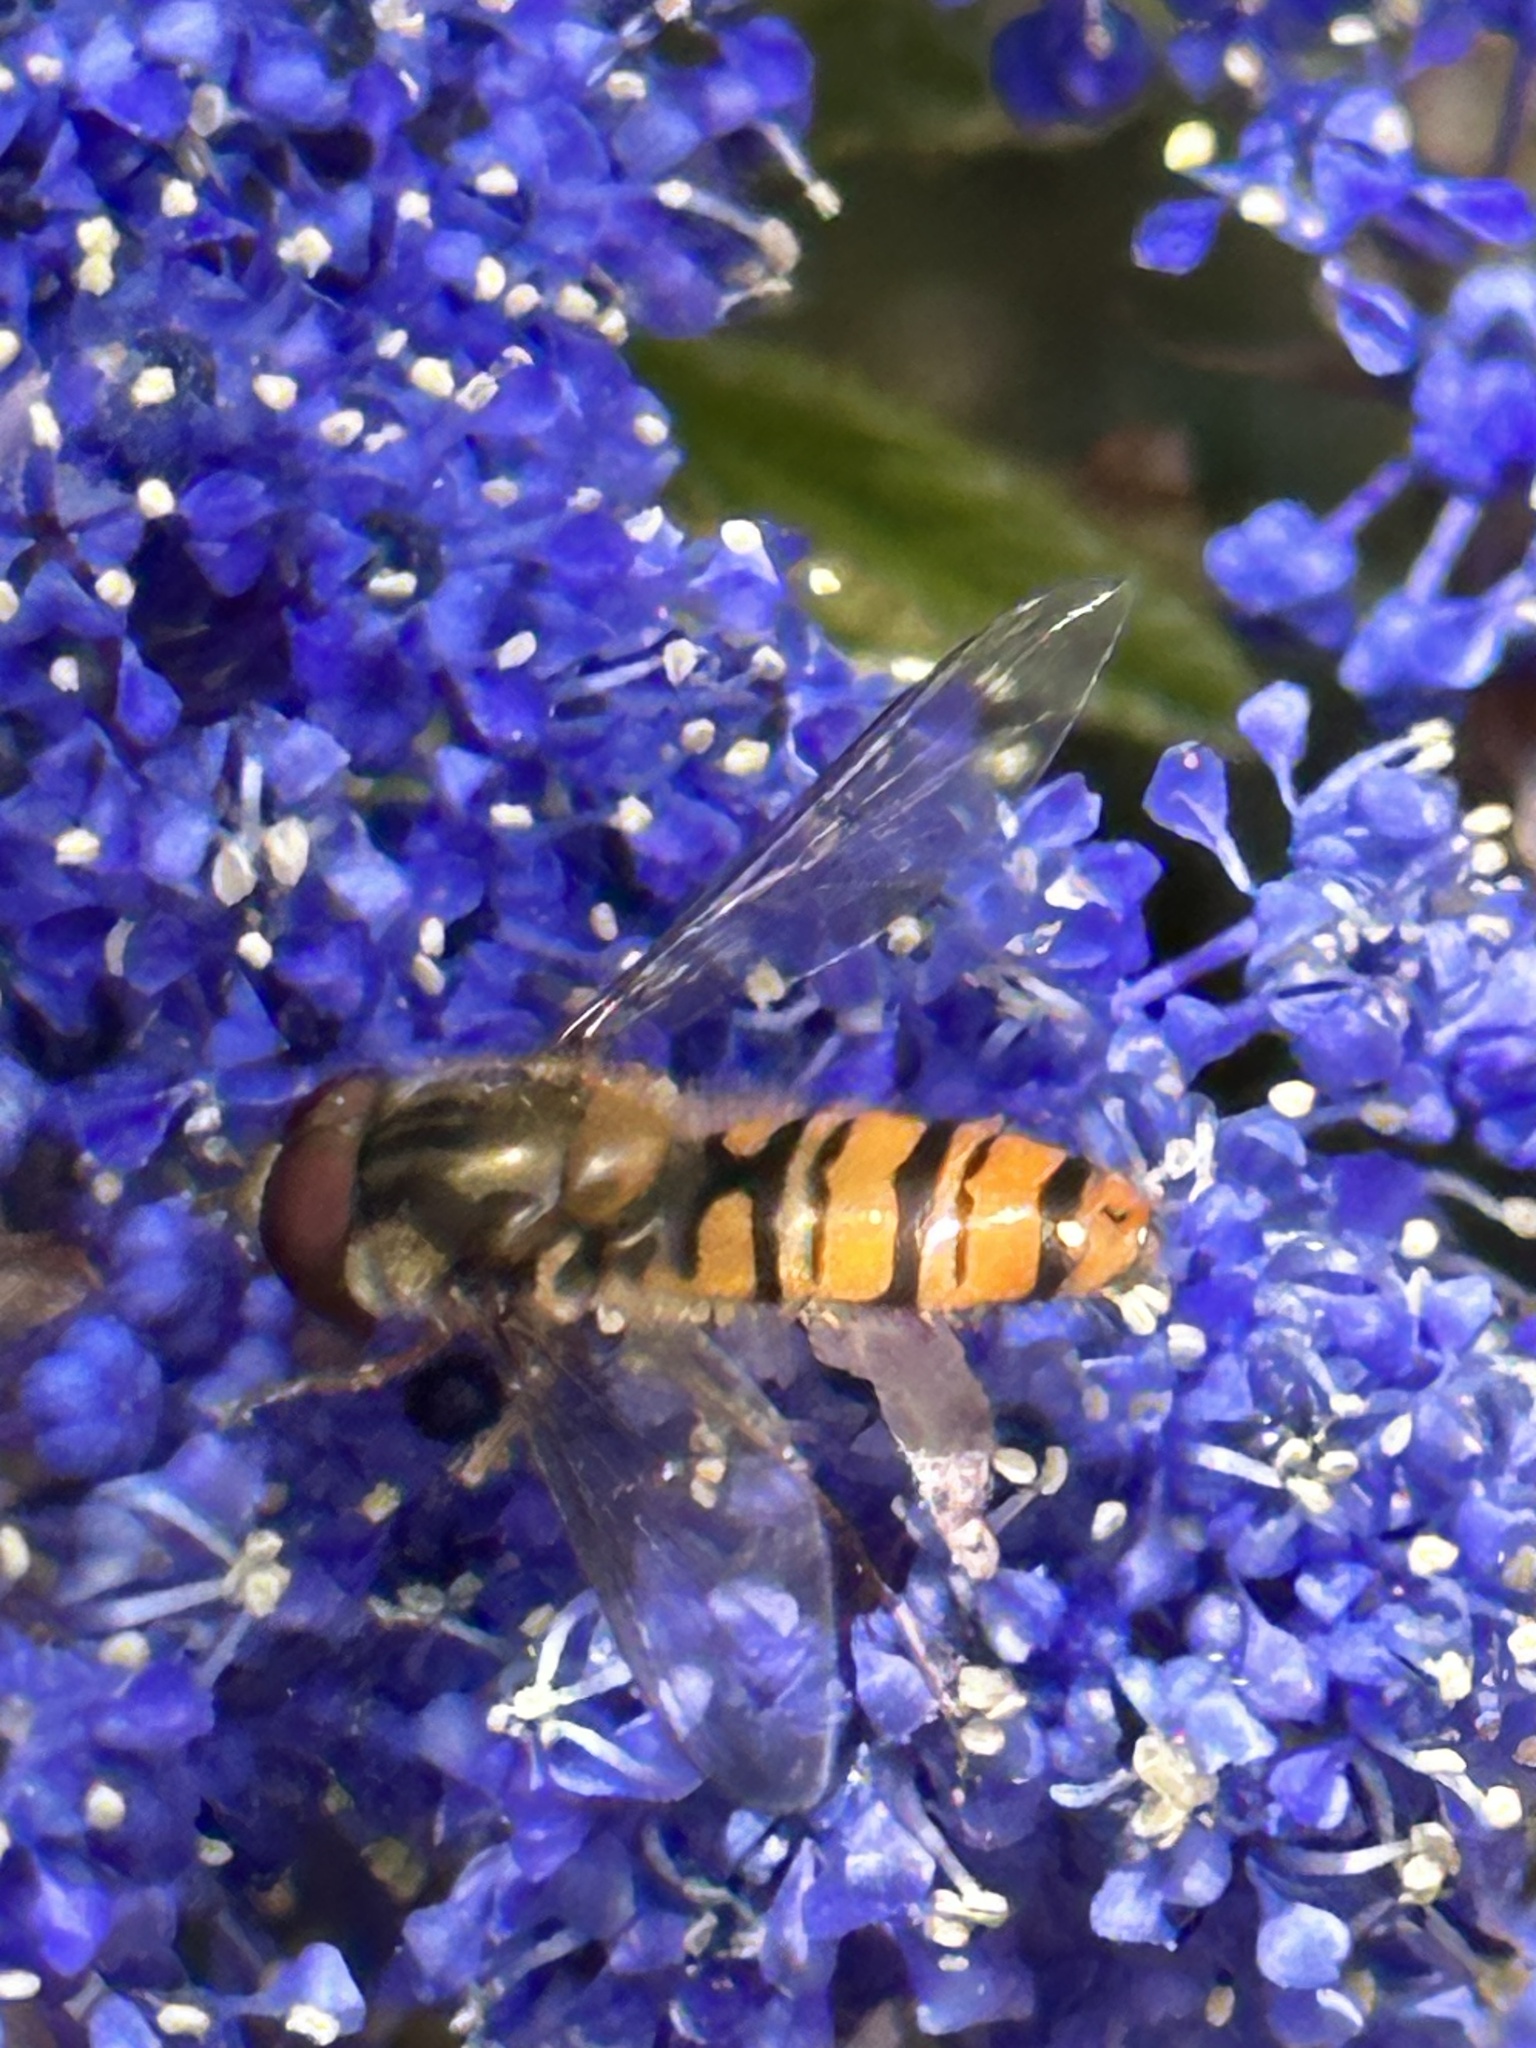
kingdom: Animalia
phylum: Arthropoda
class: Insecta
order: Diptera
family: Syrphidae
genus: Episyrphus
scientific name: Episyrphus balteatus
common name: Marmalade hoverfly
